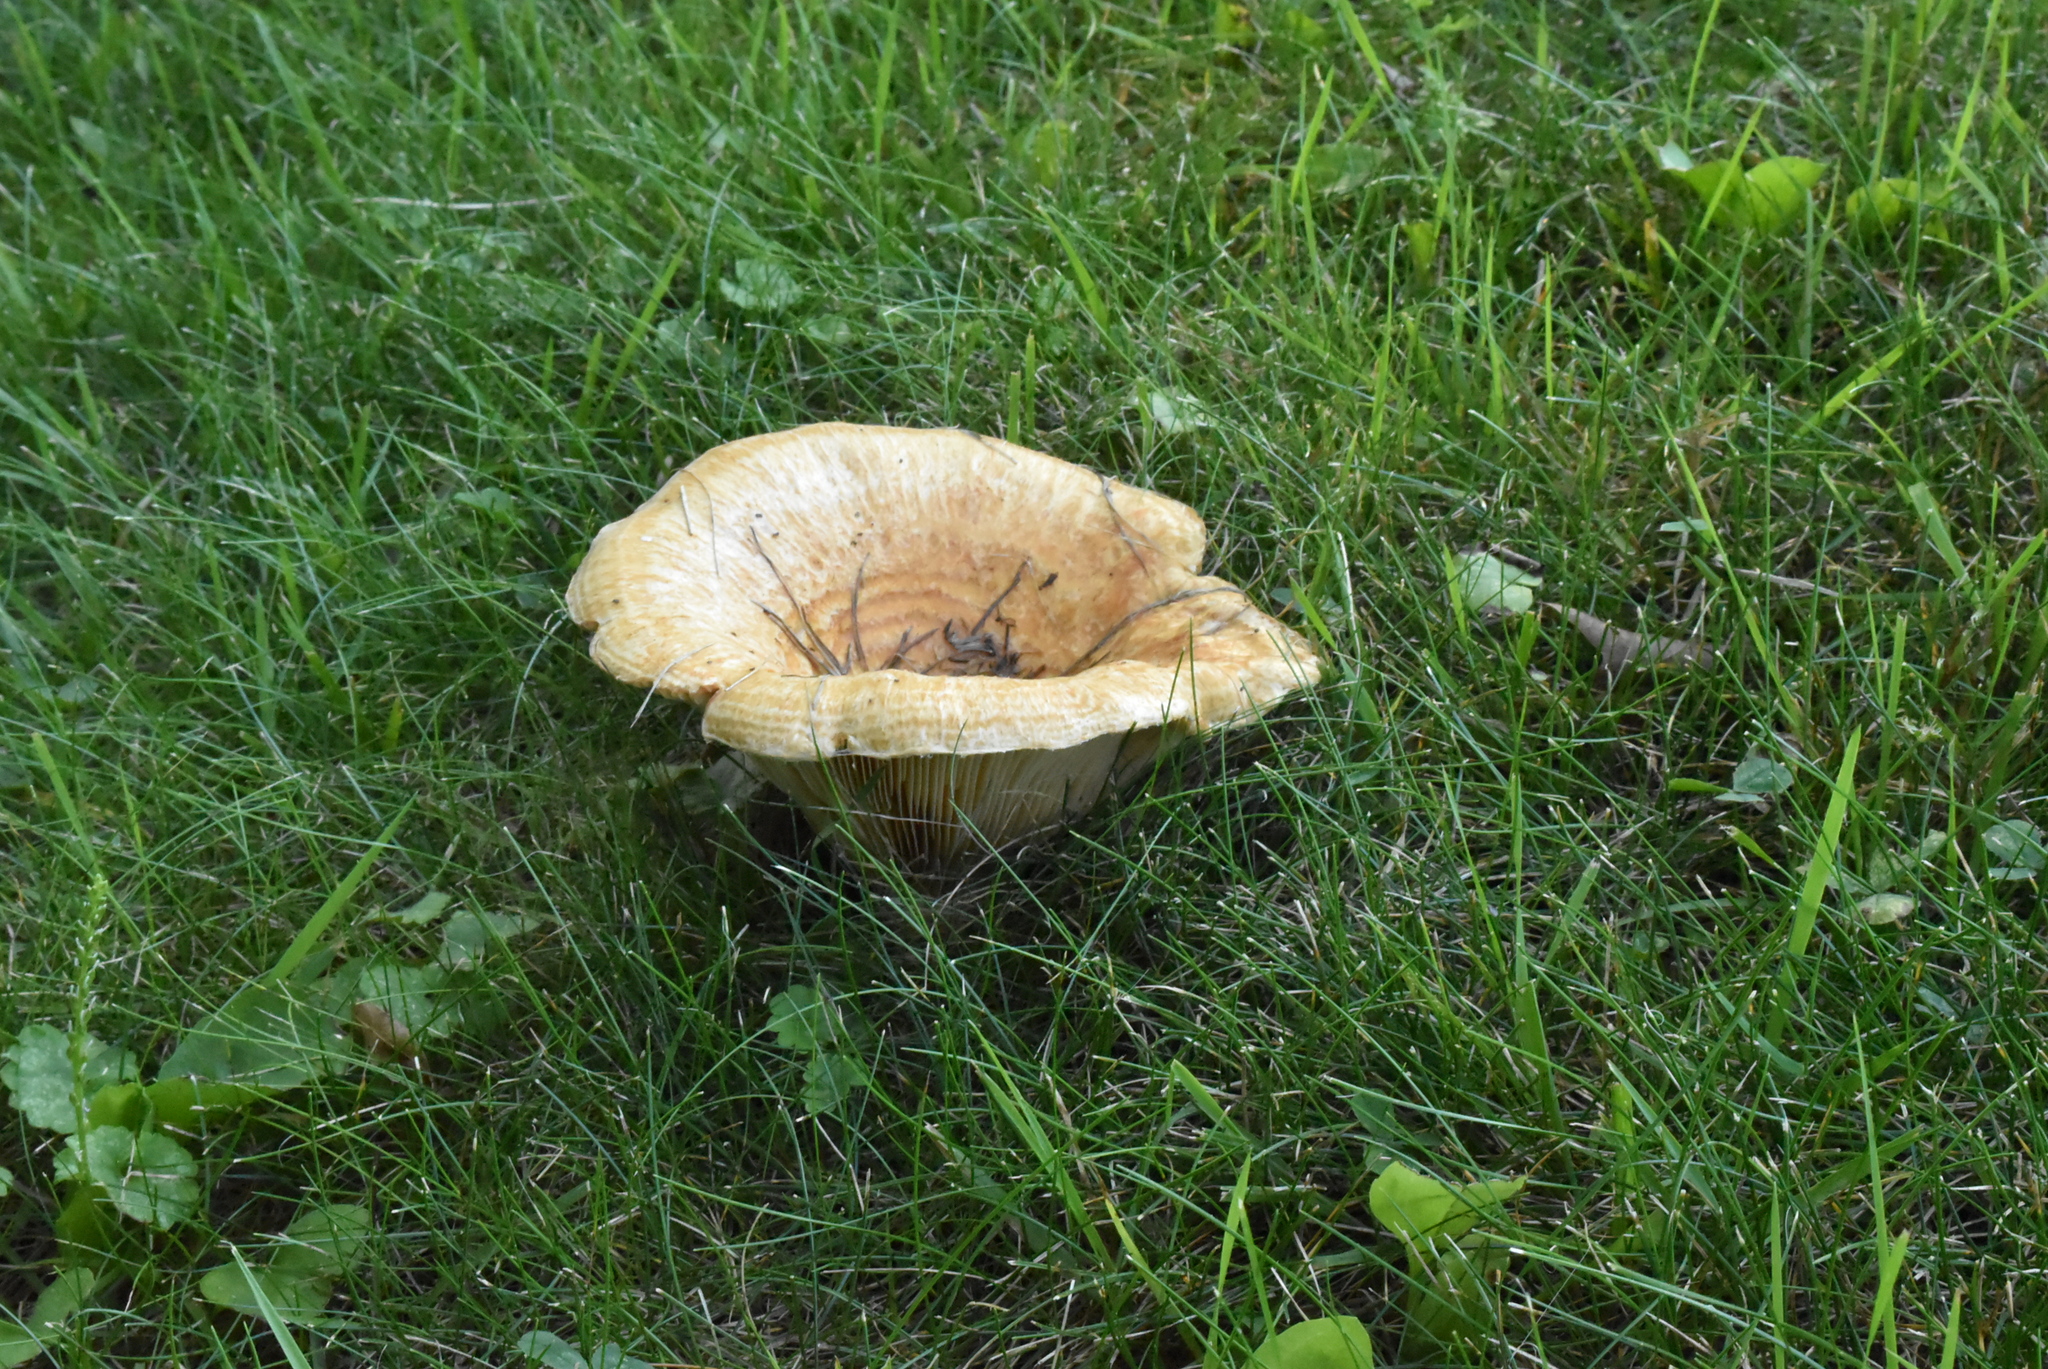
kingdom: Fungi
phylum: Basidiomycota
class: Agaricomycetes
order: Russulales
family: Russulaceae
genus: Lactarius
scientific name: Lactarius psammicola
